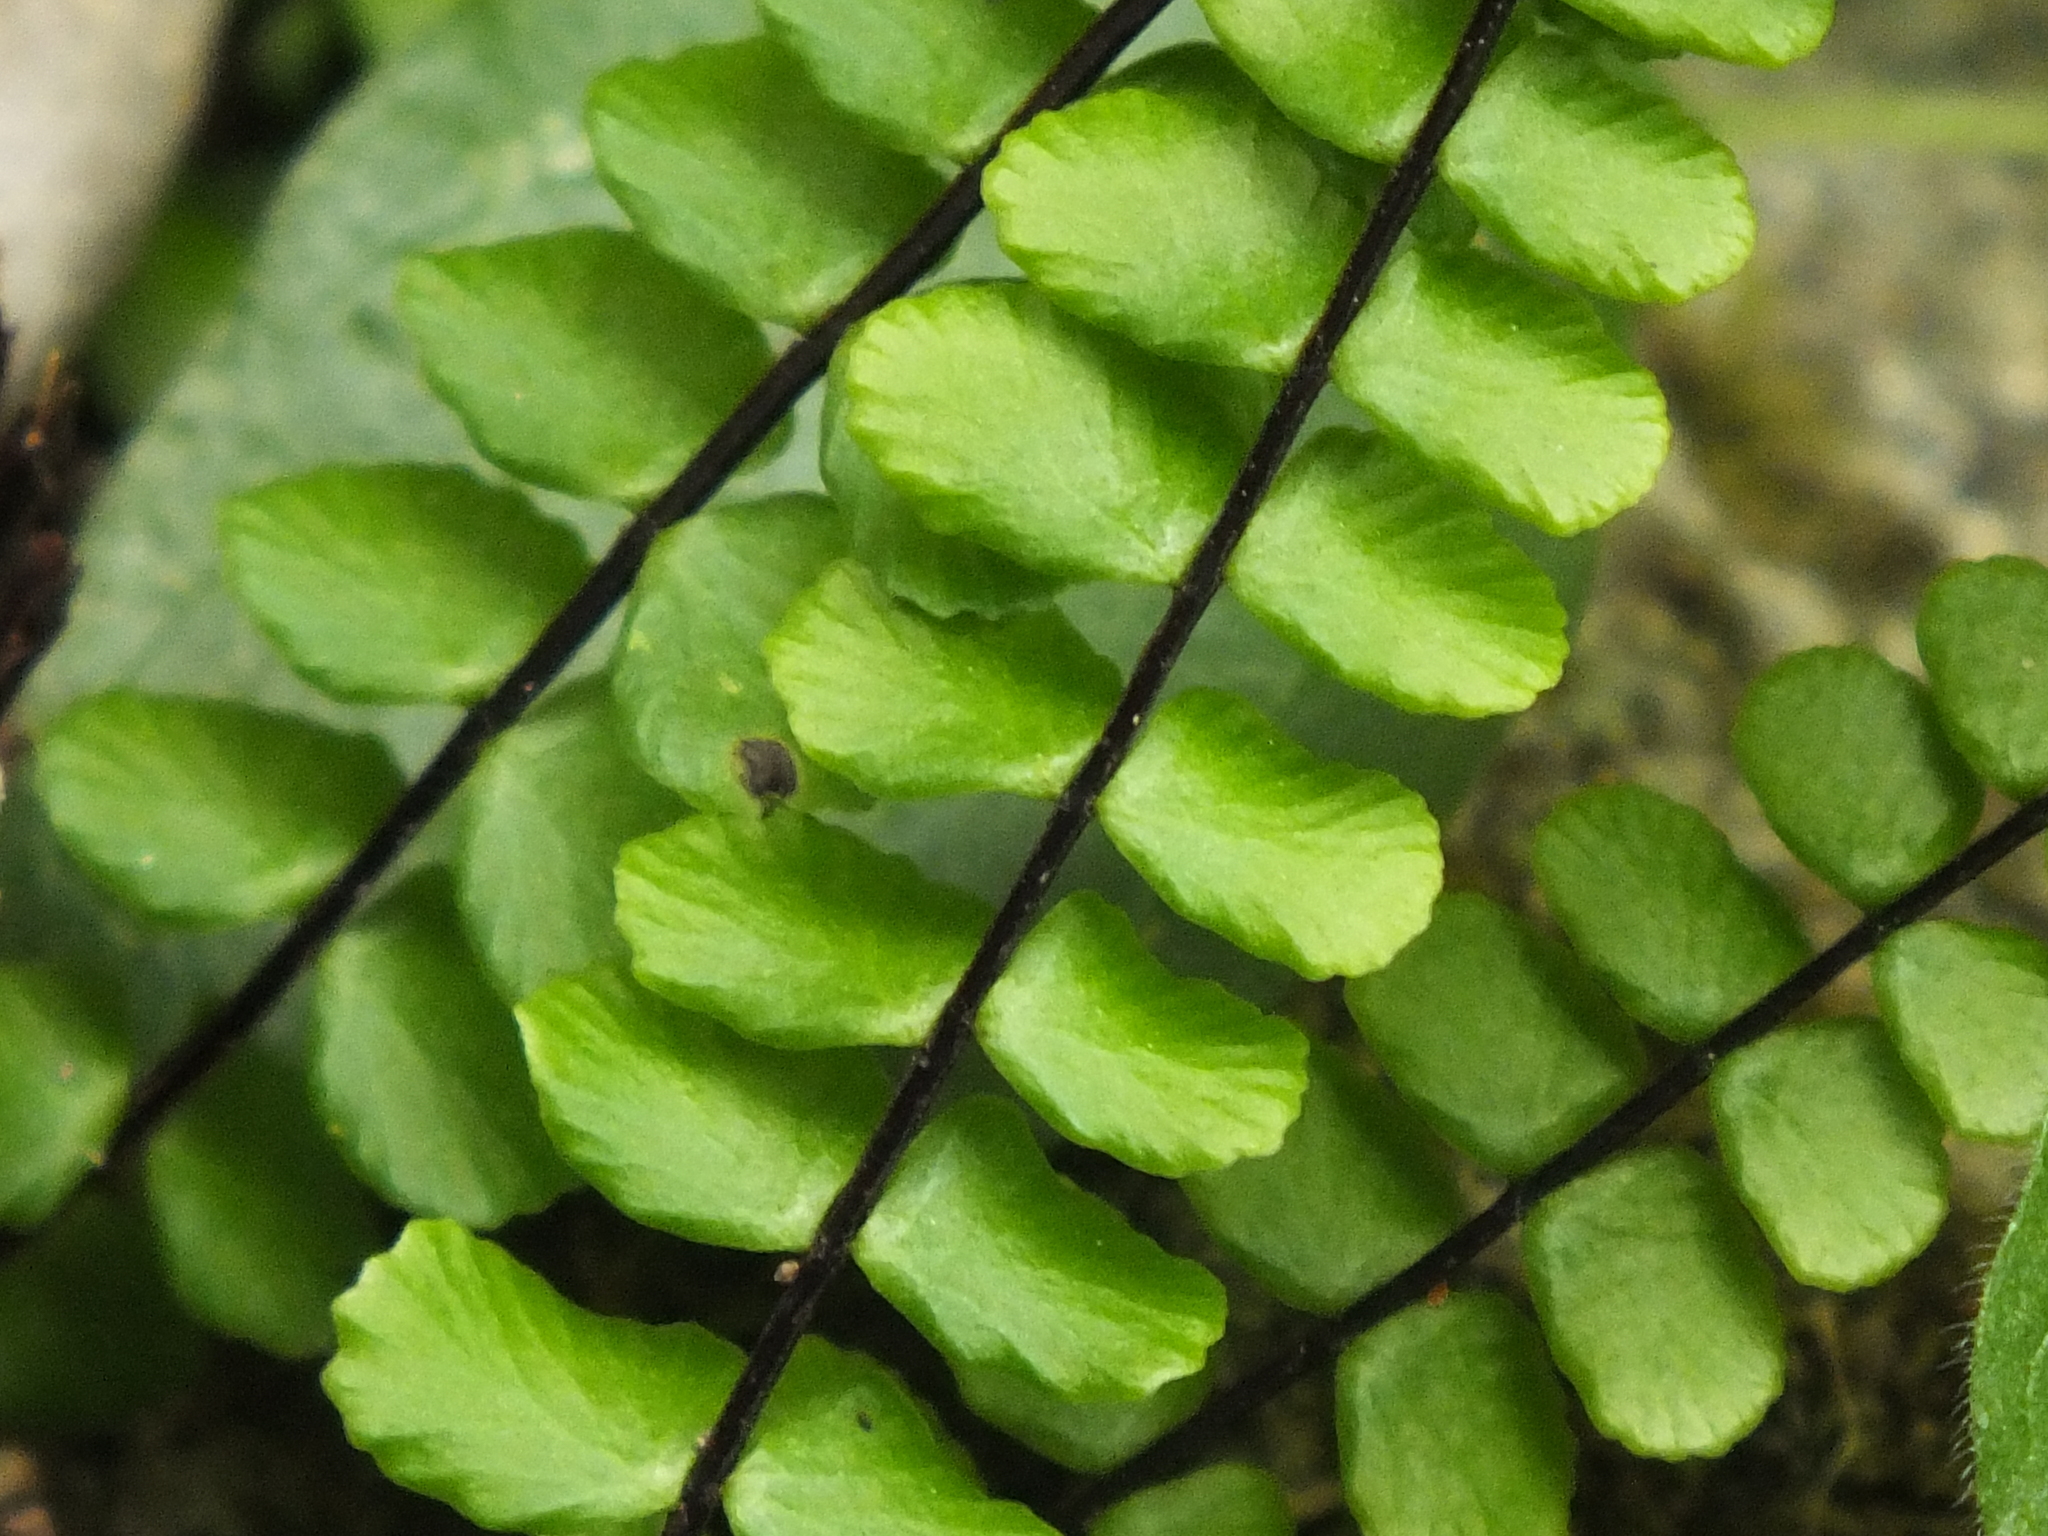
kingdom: Plantae
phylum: Tracheophyta
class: Polypodiopsida
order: Polypodiales
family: Aspleniaceae
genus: Asplenium
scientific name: Asplenium trichomanes
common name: Maidenhair spleenwort
